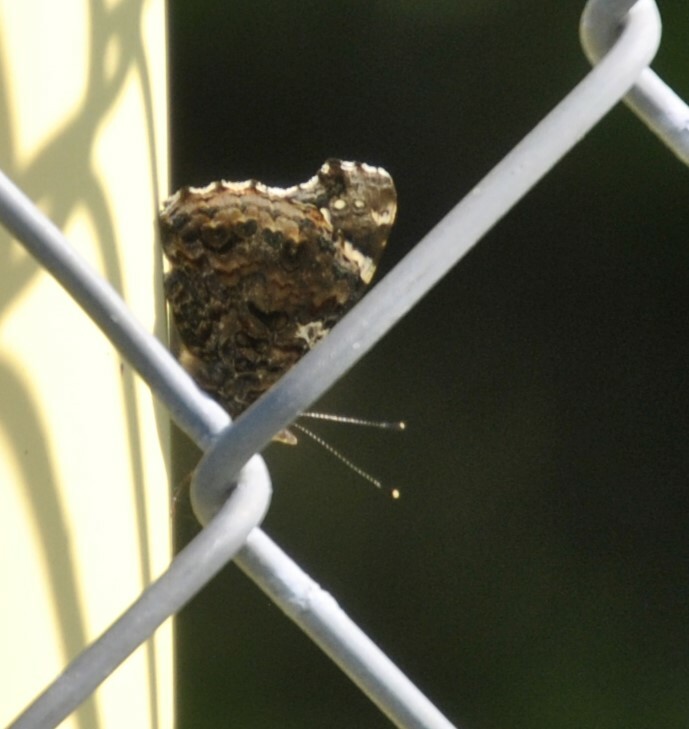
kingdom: Animalia
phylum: Arthropoda
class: Insecta
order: Lepidoptera
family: Nymphalidae
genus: Vanessa
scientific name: Vanessa atalanta
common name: Red admiral
